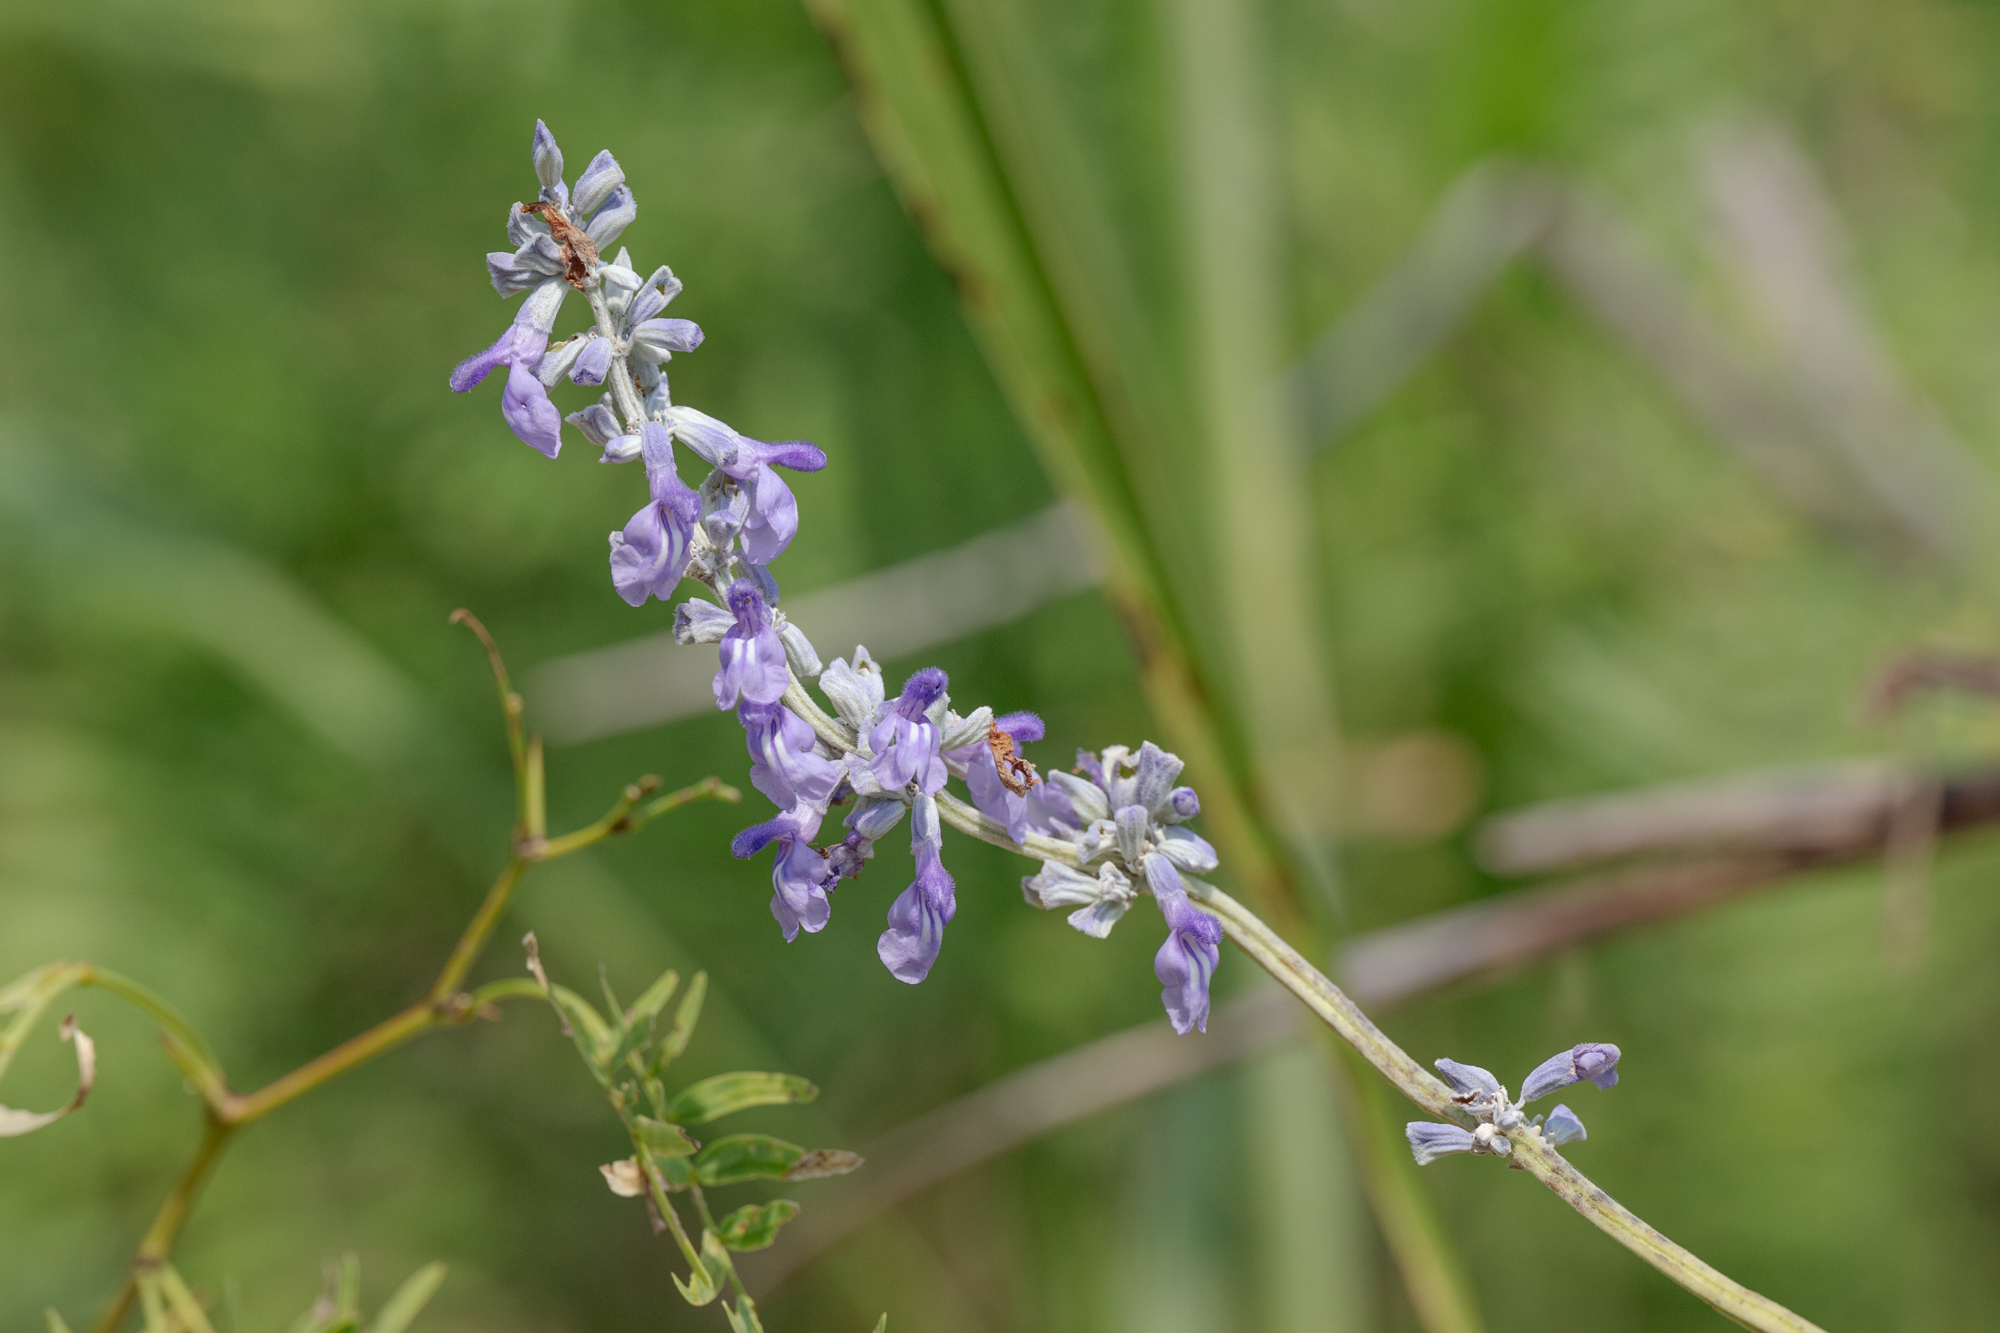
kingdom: Plantae
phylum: Tracheophyta
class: Magnoliopsida
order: Lamiales
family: Lamiaceae
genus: Salvia
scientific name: Salvia farinacea
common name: Mealy sage
